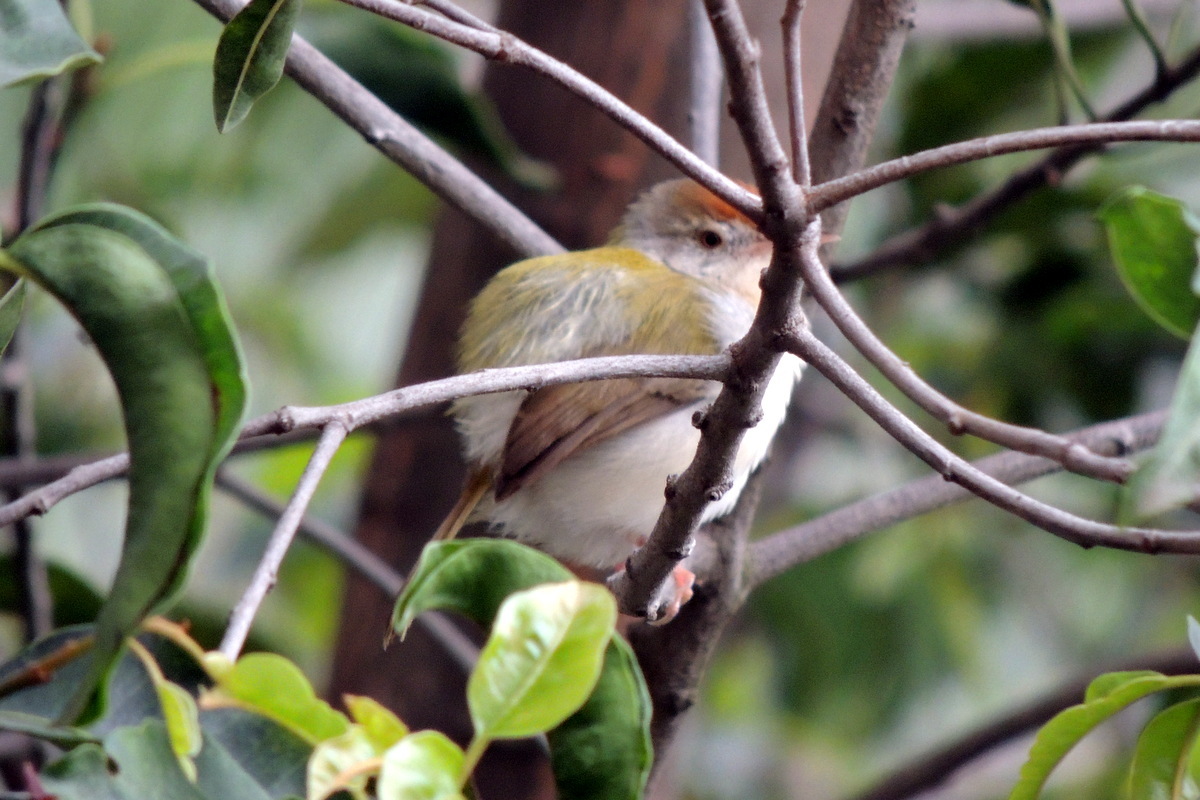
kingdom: Animalia
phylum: Chordata
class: Aves
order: Passeriformes
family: Cisticolidae
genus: Orthotomus
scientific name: Orthotomus sutorius
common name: Common tailorbird
